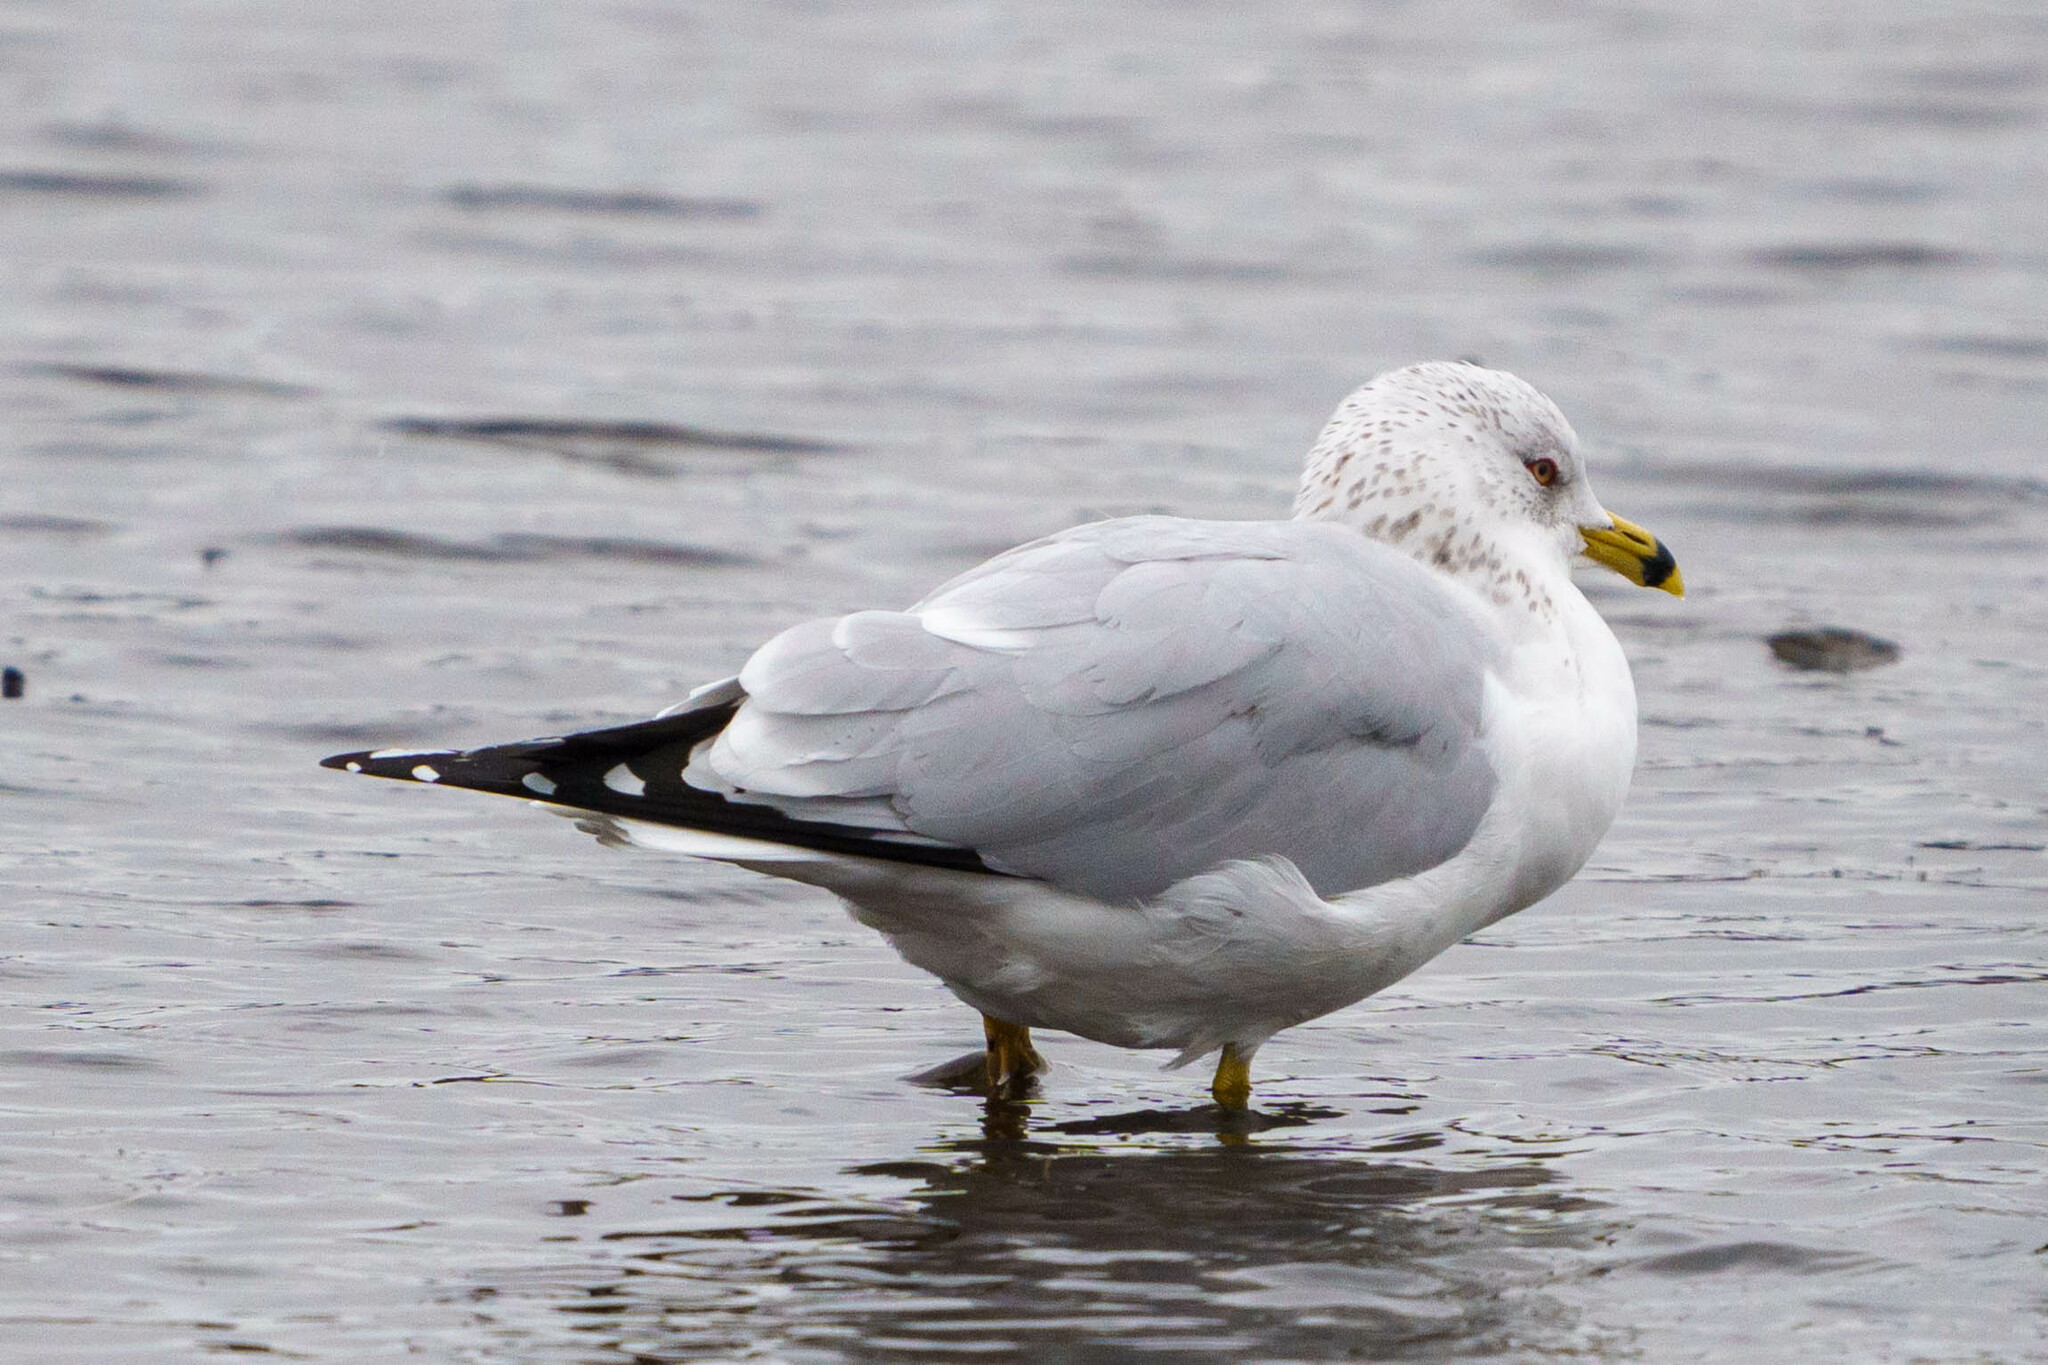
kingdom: Animalia
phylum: Chordata
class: Aves
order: Charadriiformes
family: Laridae
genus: Larus
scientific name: Larus delawarensis
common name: Ring-billed gull
